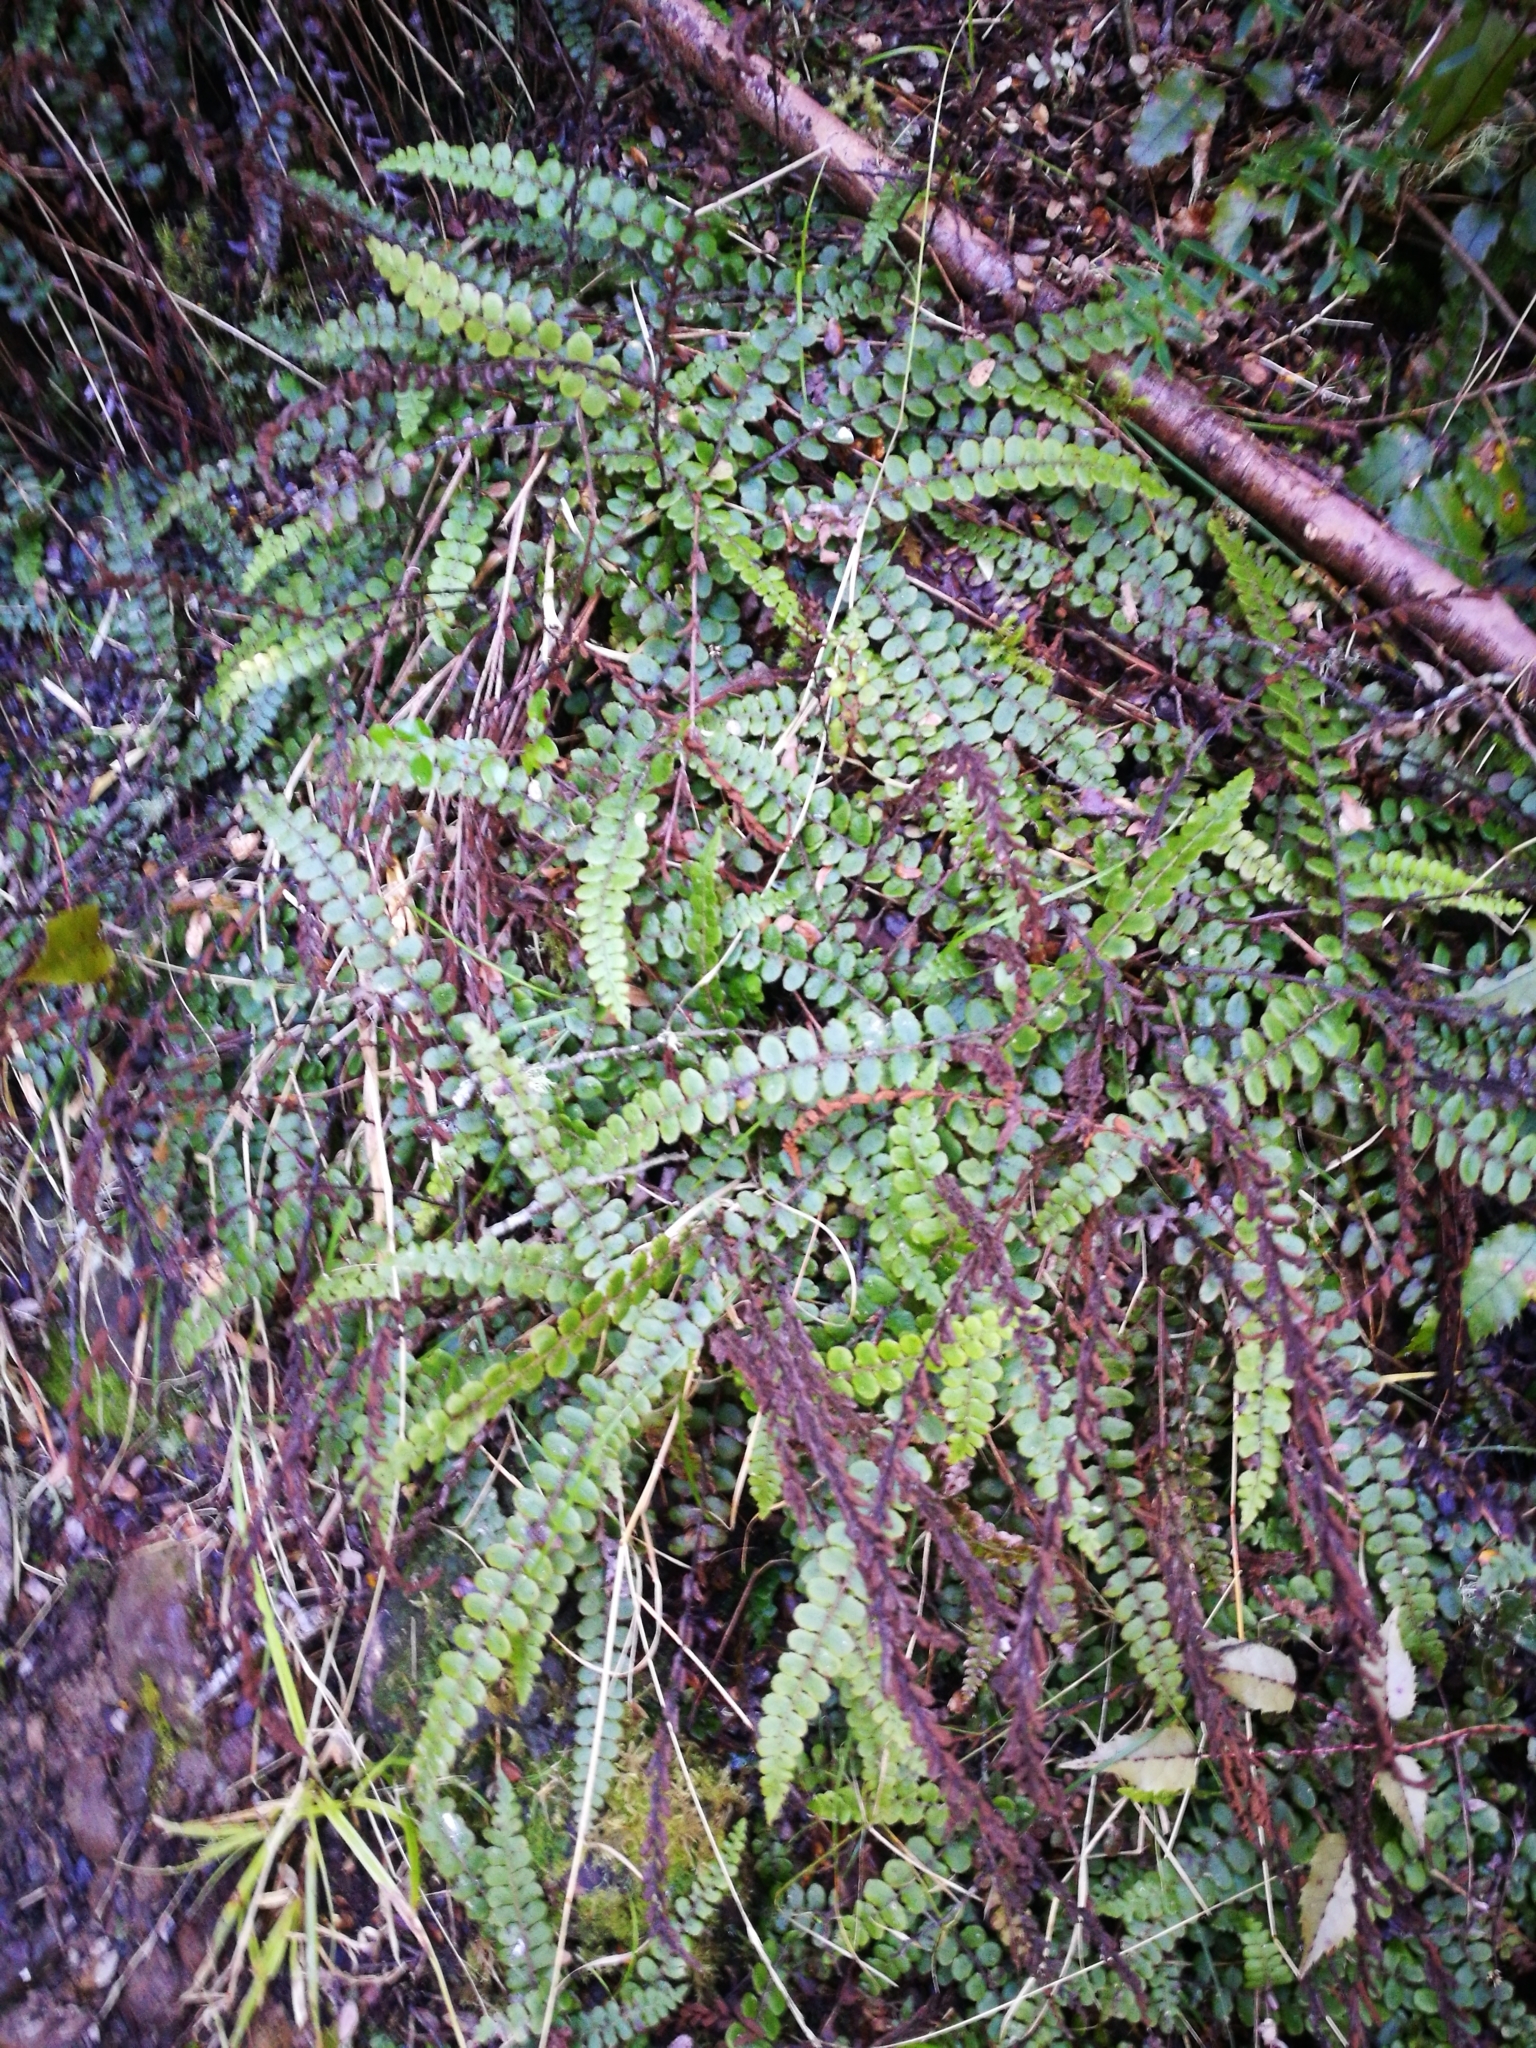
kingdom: Plantae
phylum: Tracheophyta
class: Polypodiopsida
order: Polypodiales
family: Blechnaceae
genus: Cranfillia
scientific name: Cranfillia fluviatilis
